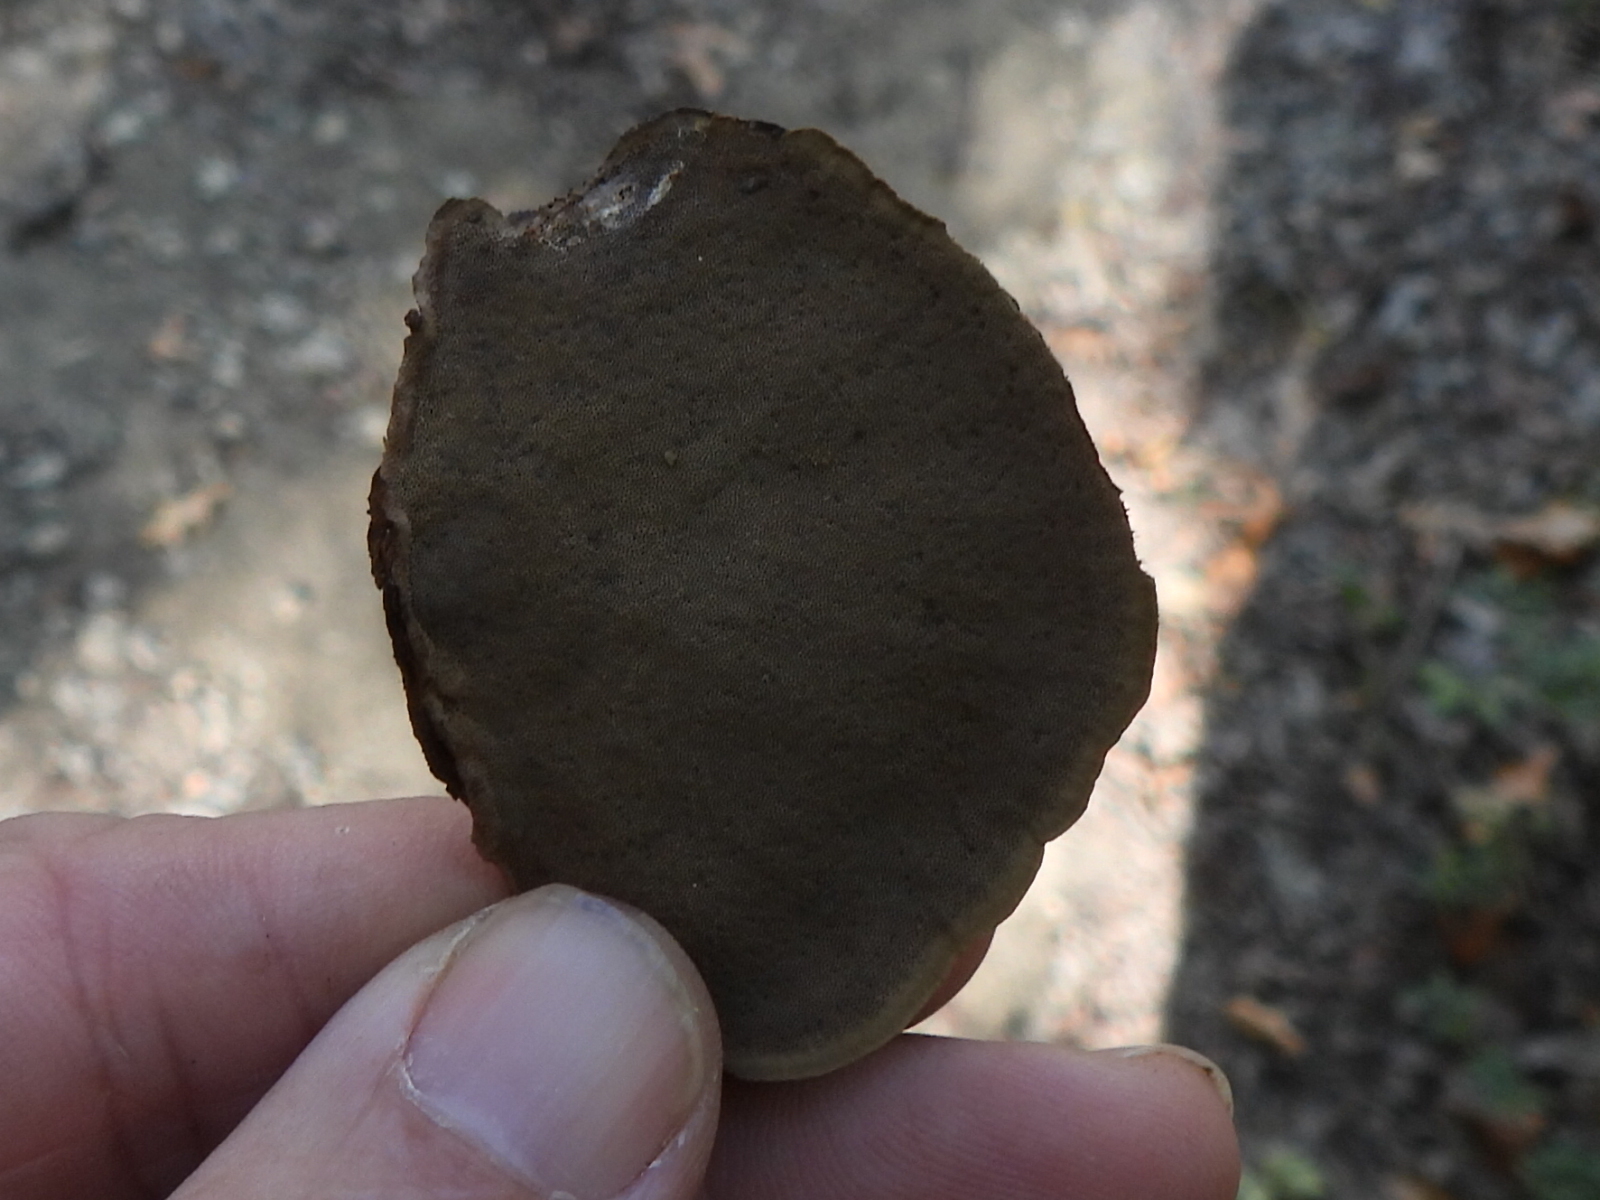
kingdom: Fungi
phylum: Basidiomycota
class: Agaricomycetes
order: Polyporales
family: Cerrenaceae
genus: Cerrena
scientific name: Cerrena hydnoides
